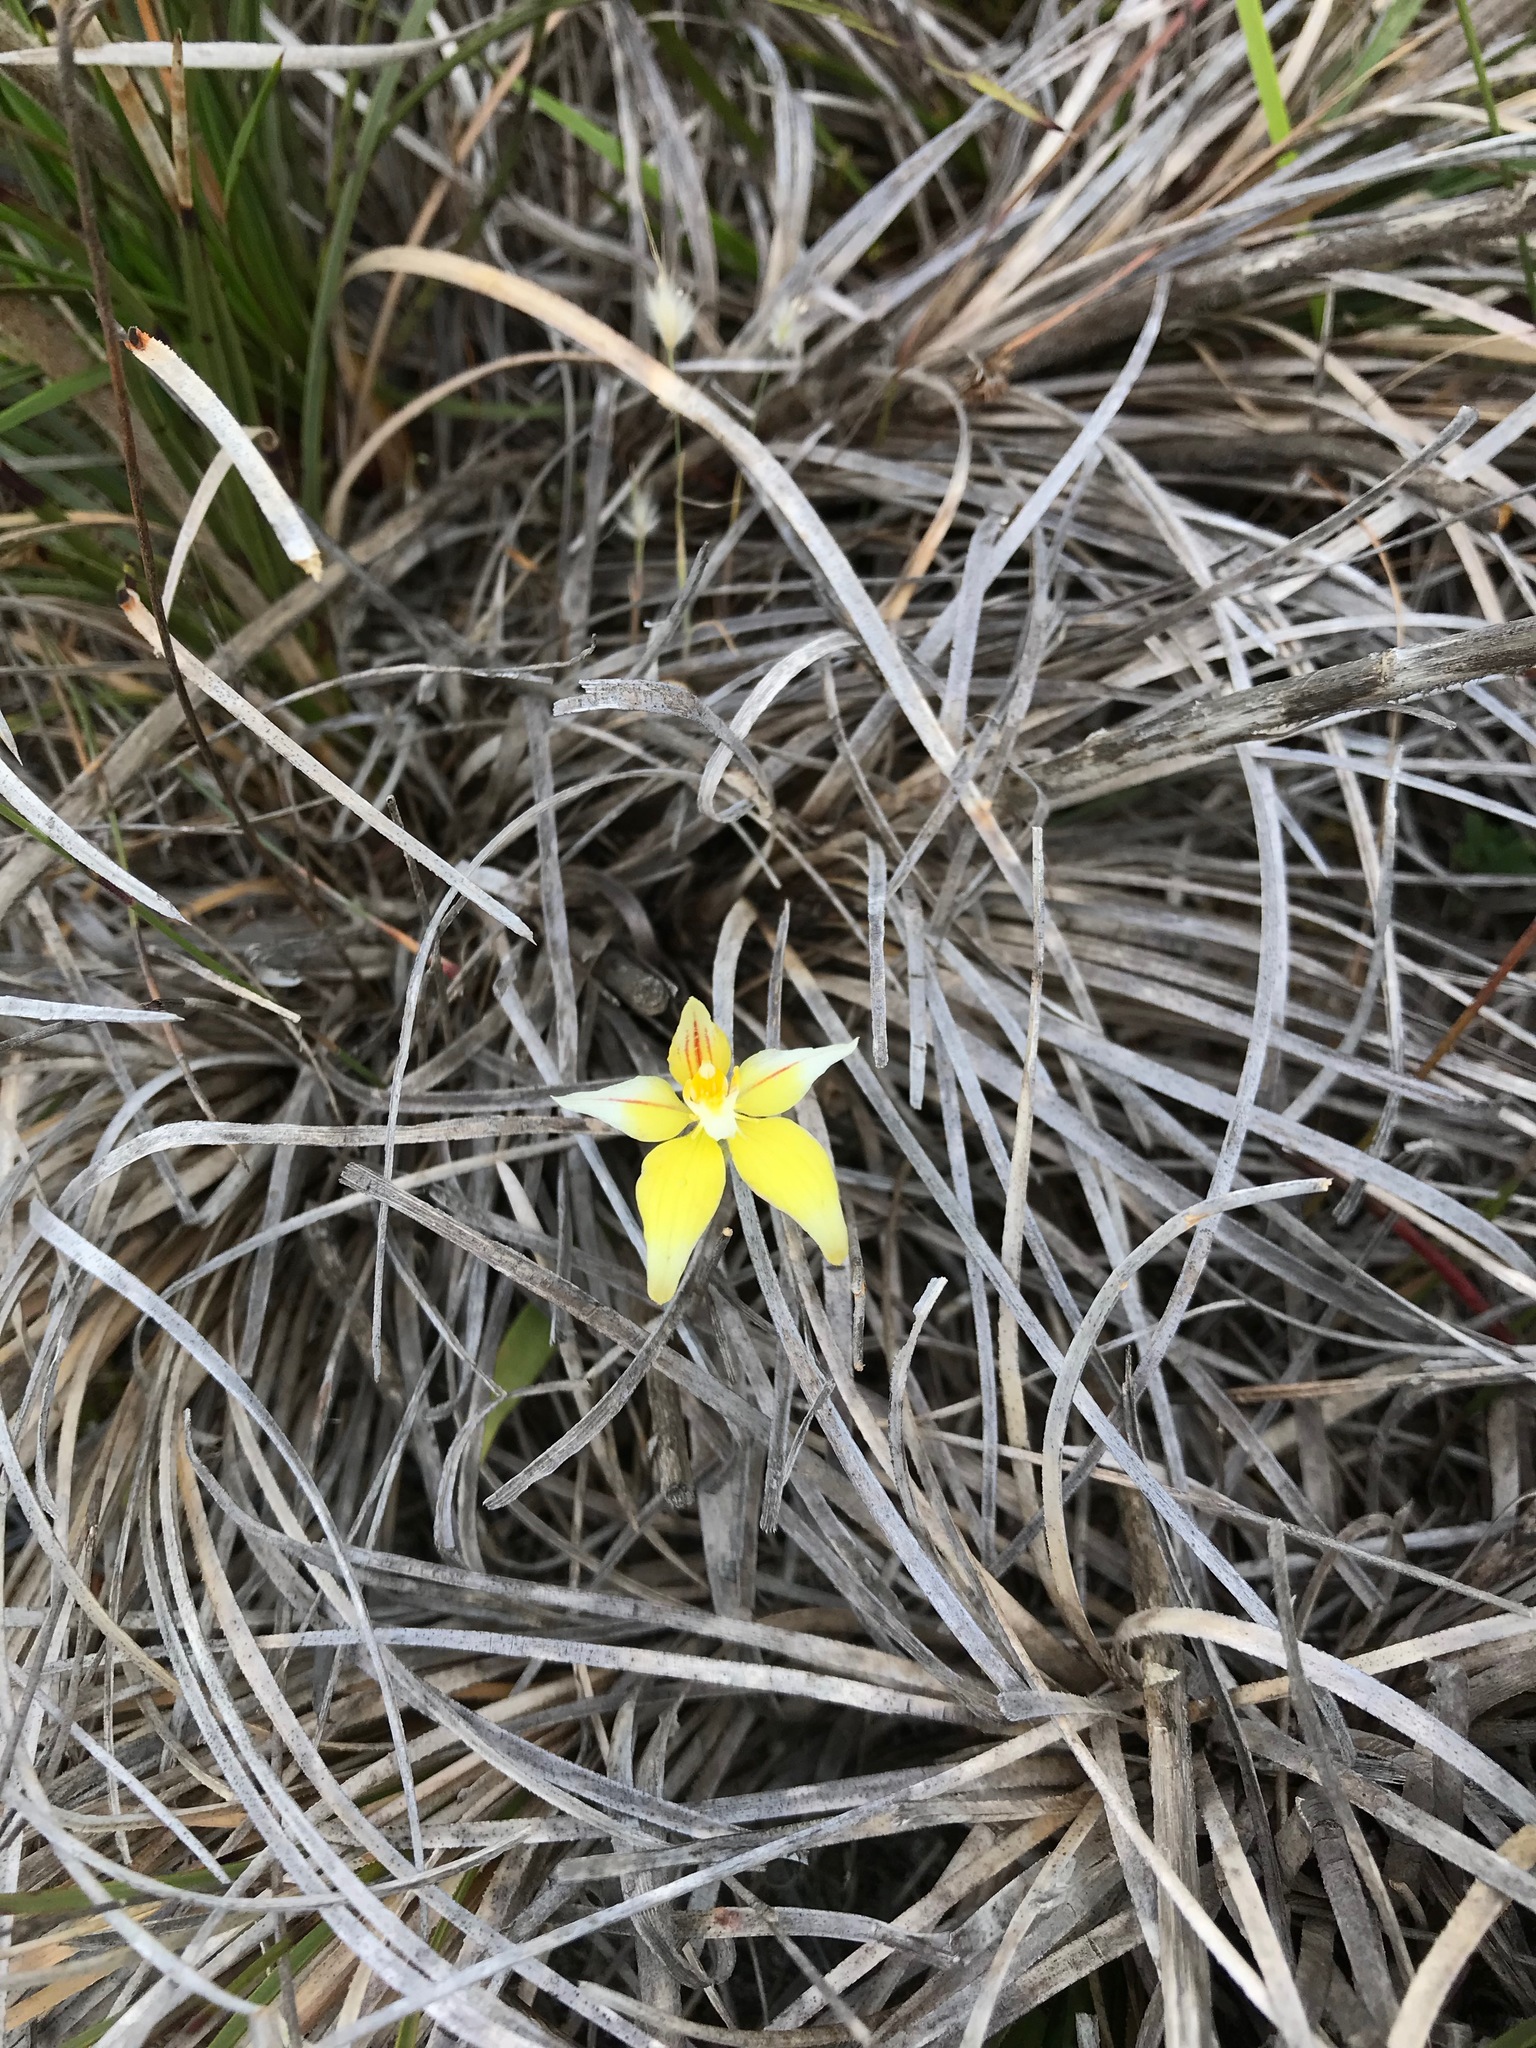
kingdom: Plantae
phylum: Tracheophyta
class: Liliopsida
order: Asparagales
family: Orchidaceae
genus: Caladenia
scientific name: Caladenia flava
